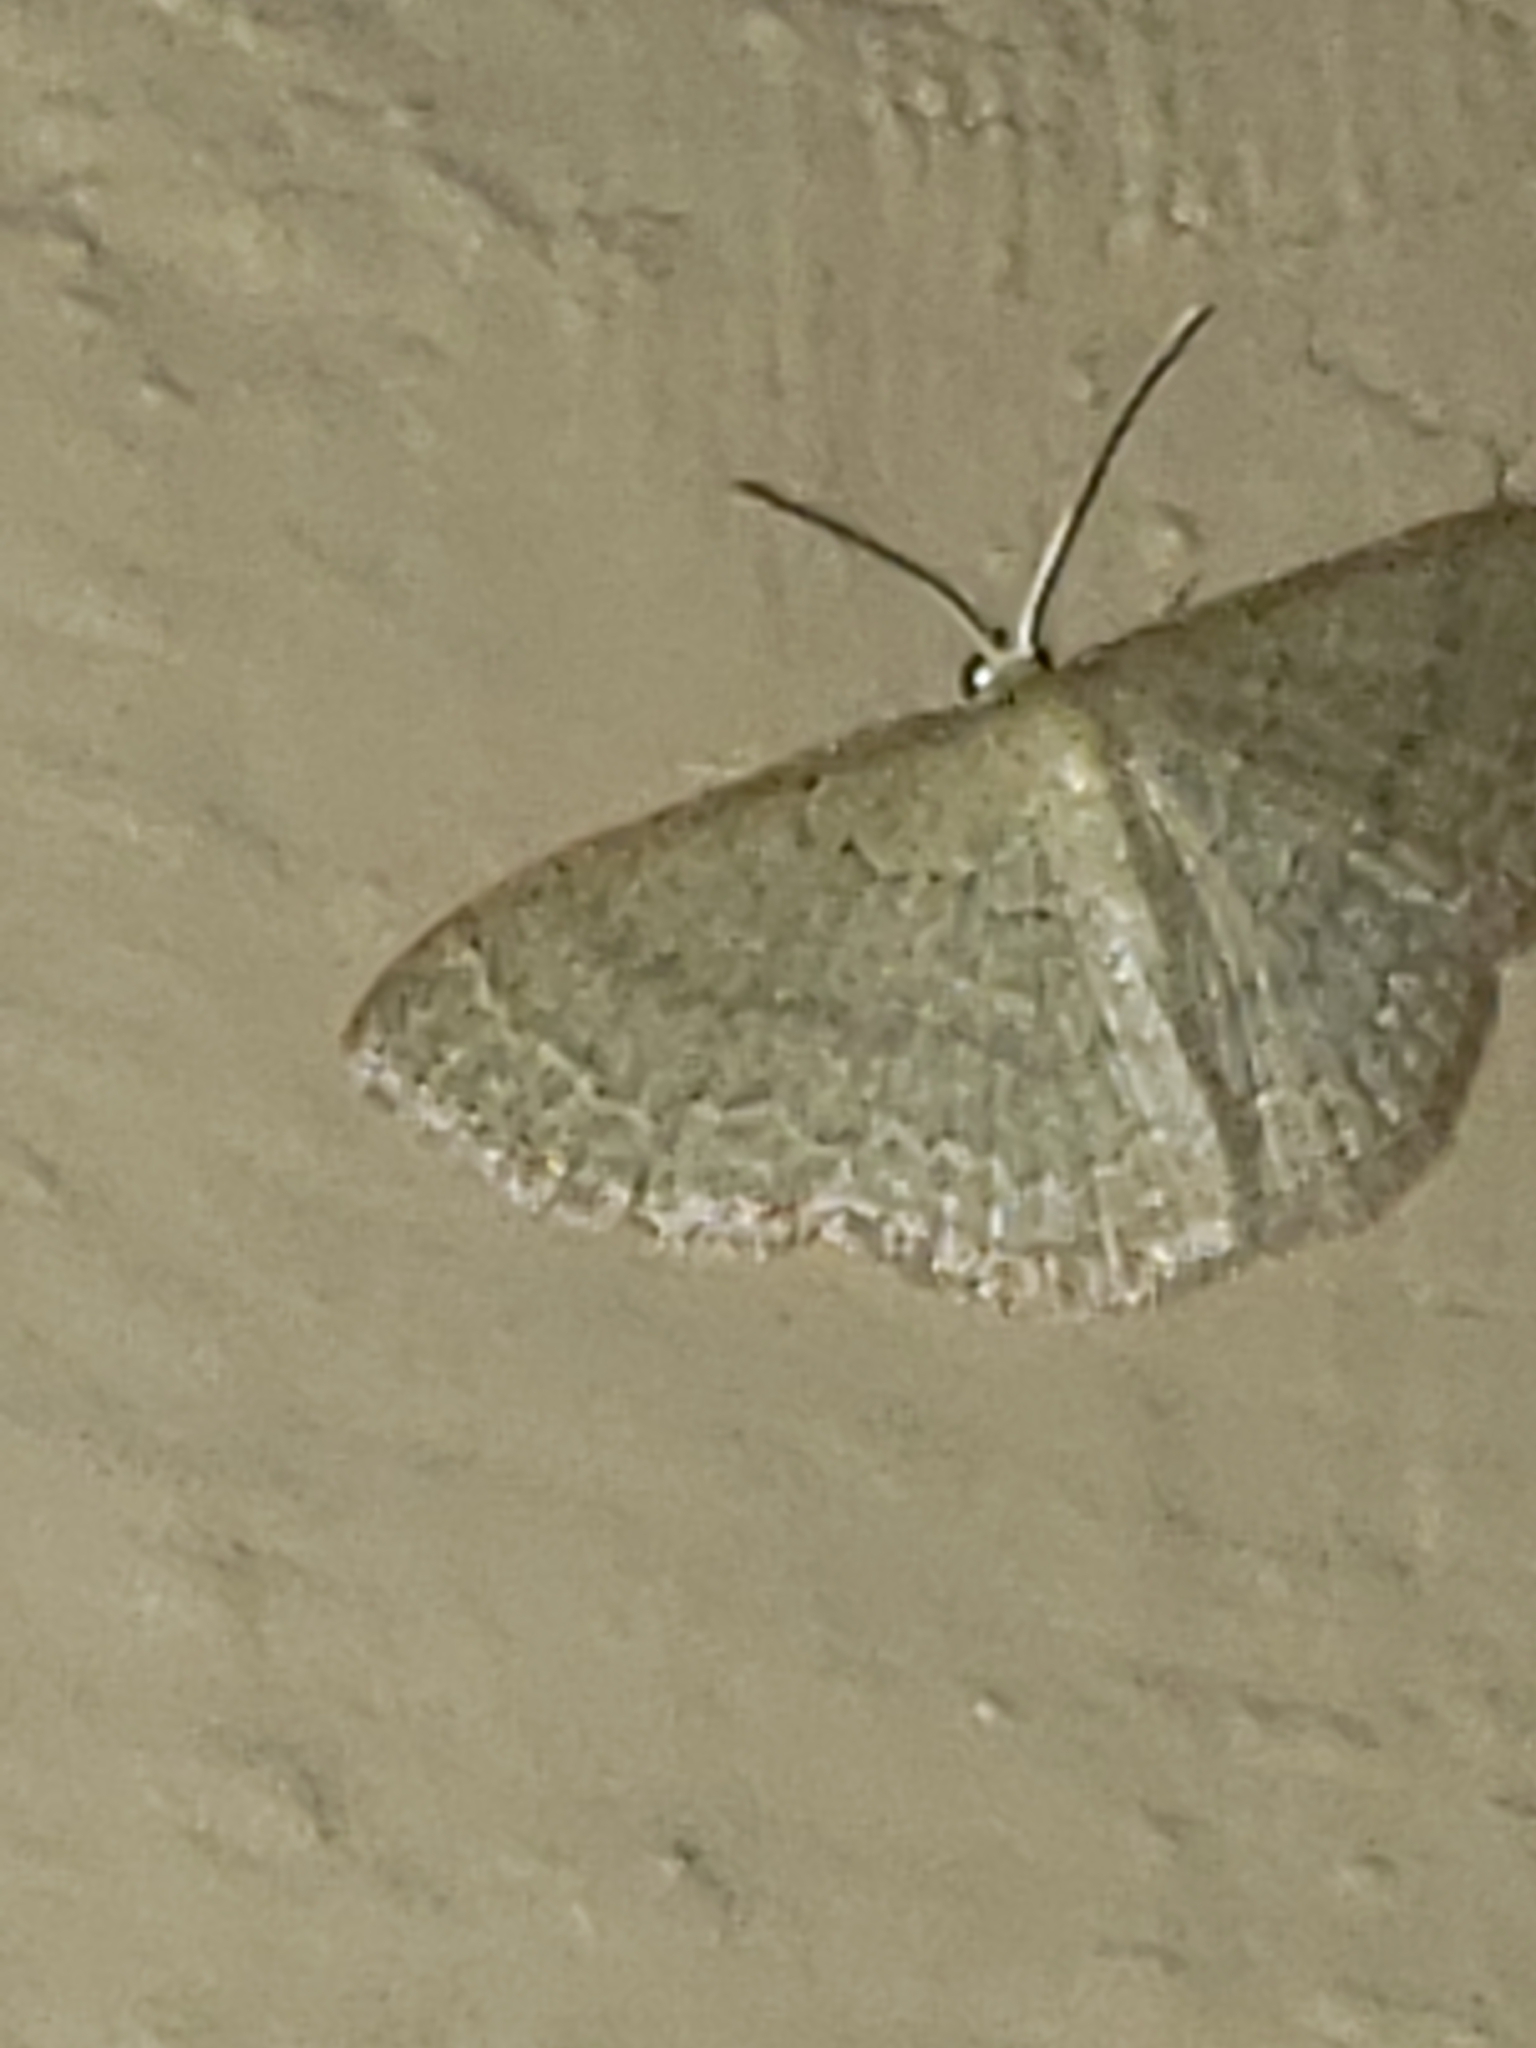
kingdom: Animalia
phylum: Arthropoda
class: Insecta
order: Lepidoptera
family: Geometridae
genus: Pleuroprucha
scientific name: Pleuroprucha insulsaria
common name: Common tan wave
